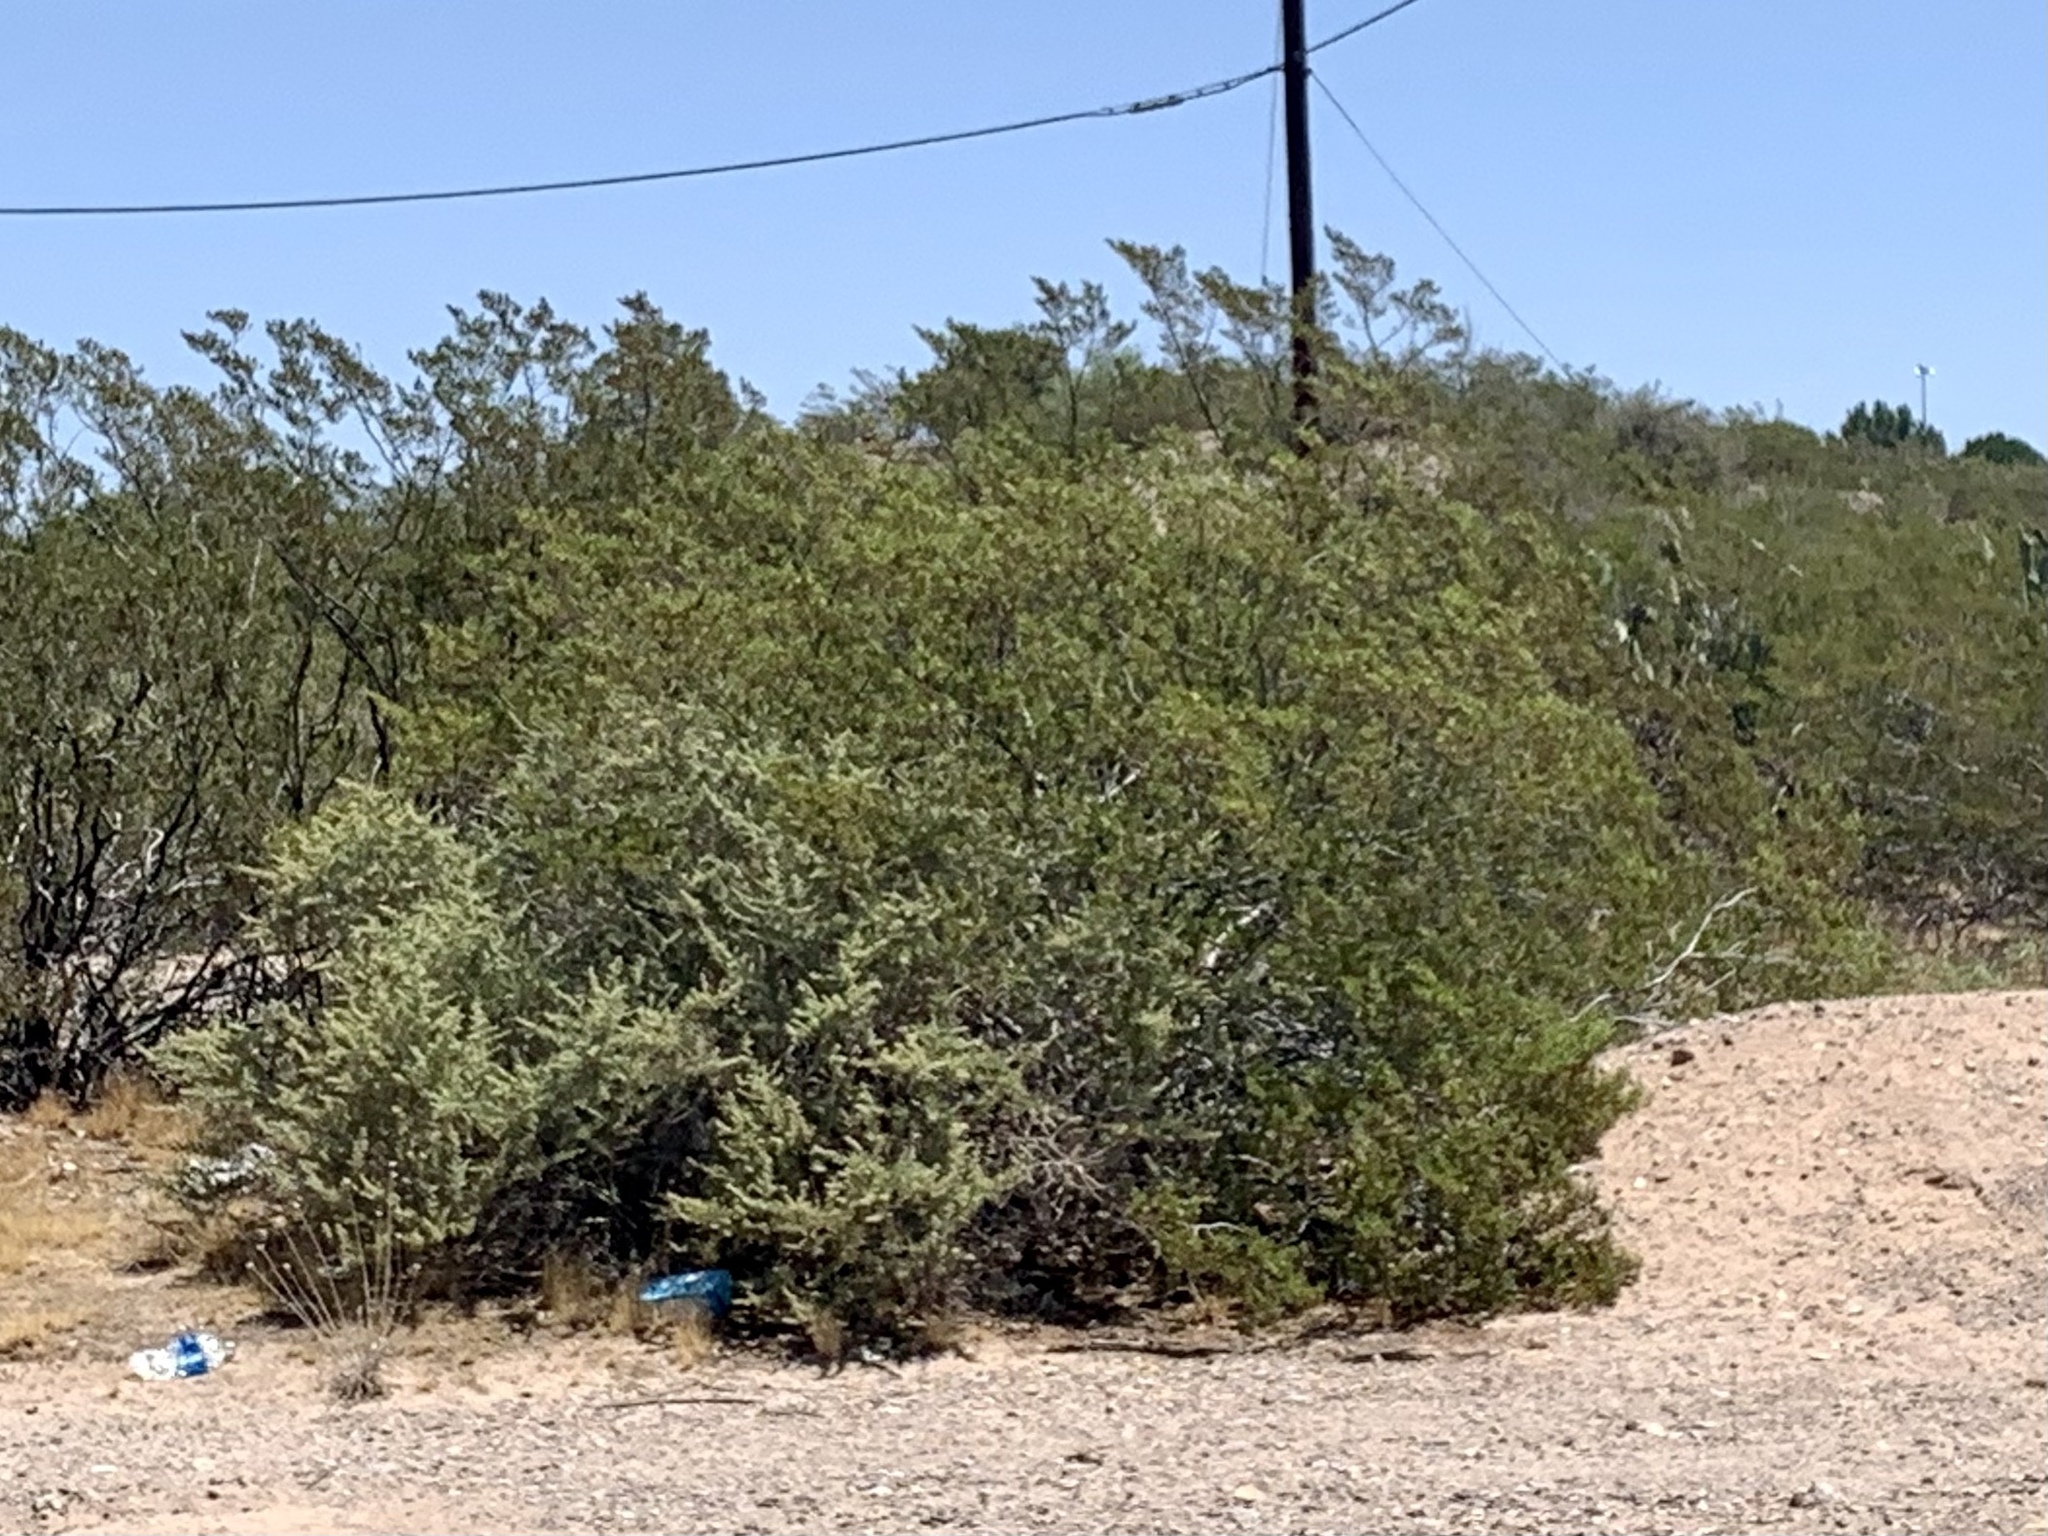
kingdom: Plantae
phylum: Tracheophyta
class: Magnoliopsida
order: Zygophyllales
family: Zygophyllaceae
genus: Larrea
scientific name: Larrea tridentata
